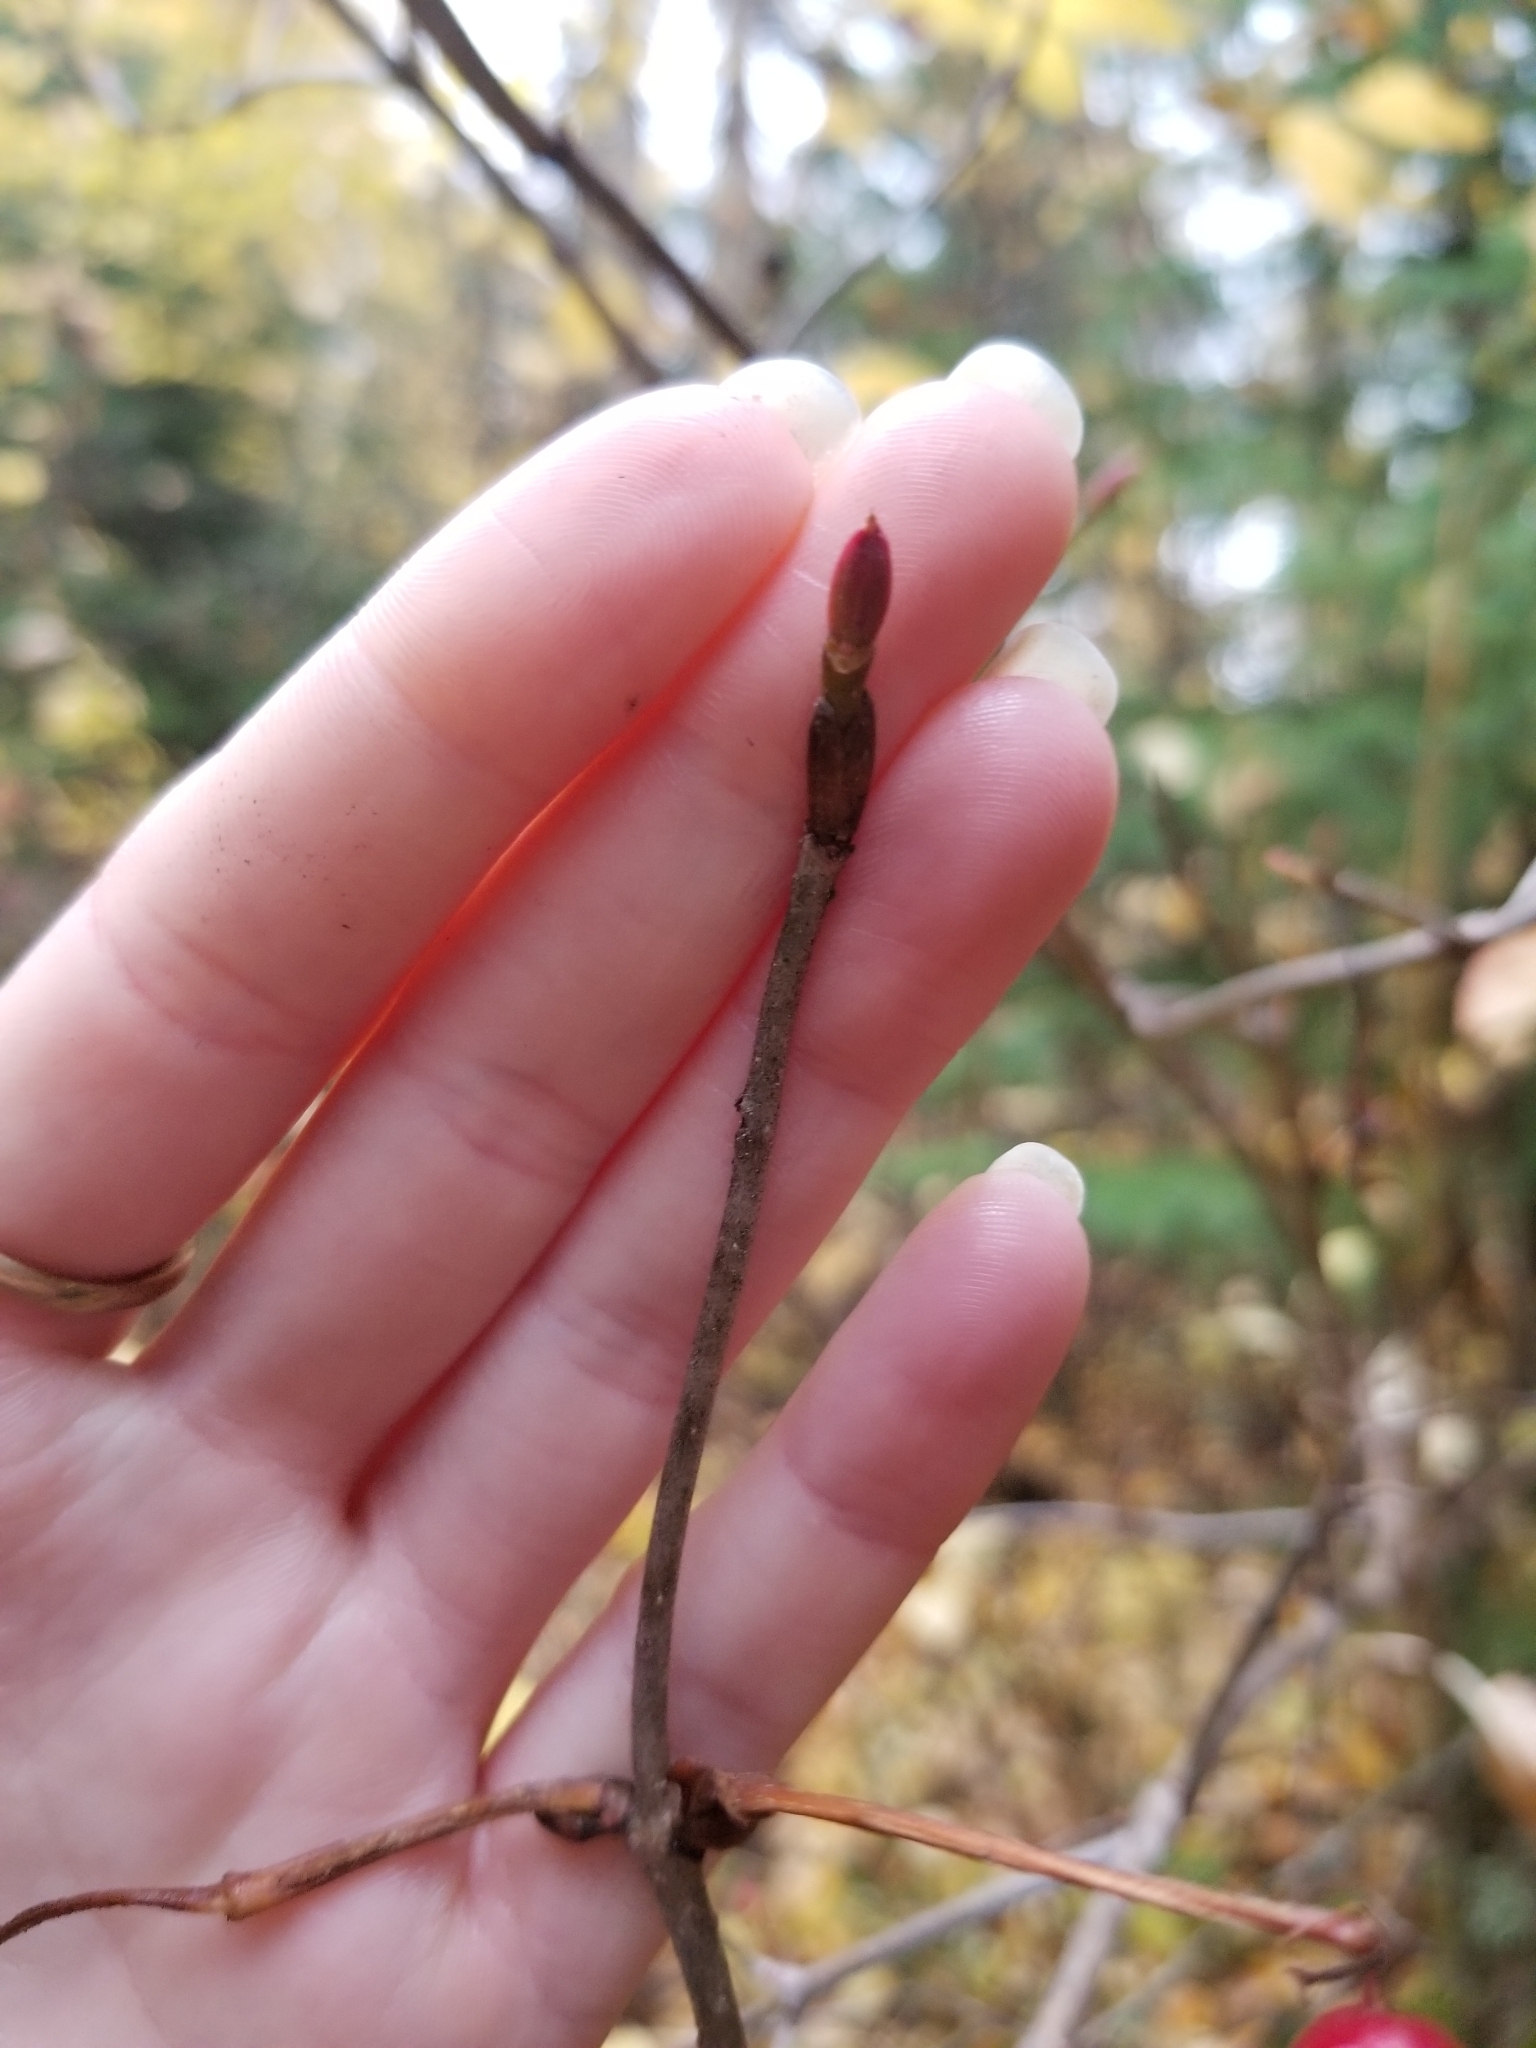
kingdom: Plantae
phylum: Tracheophyta
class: Magnoliopsida
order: Dipsacales
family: Viburnaceae
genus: Viburnum
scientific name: Viburnum edule
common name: Mooseberry
